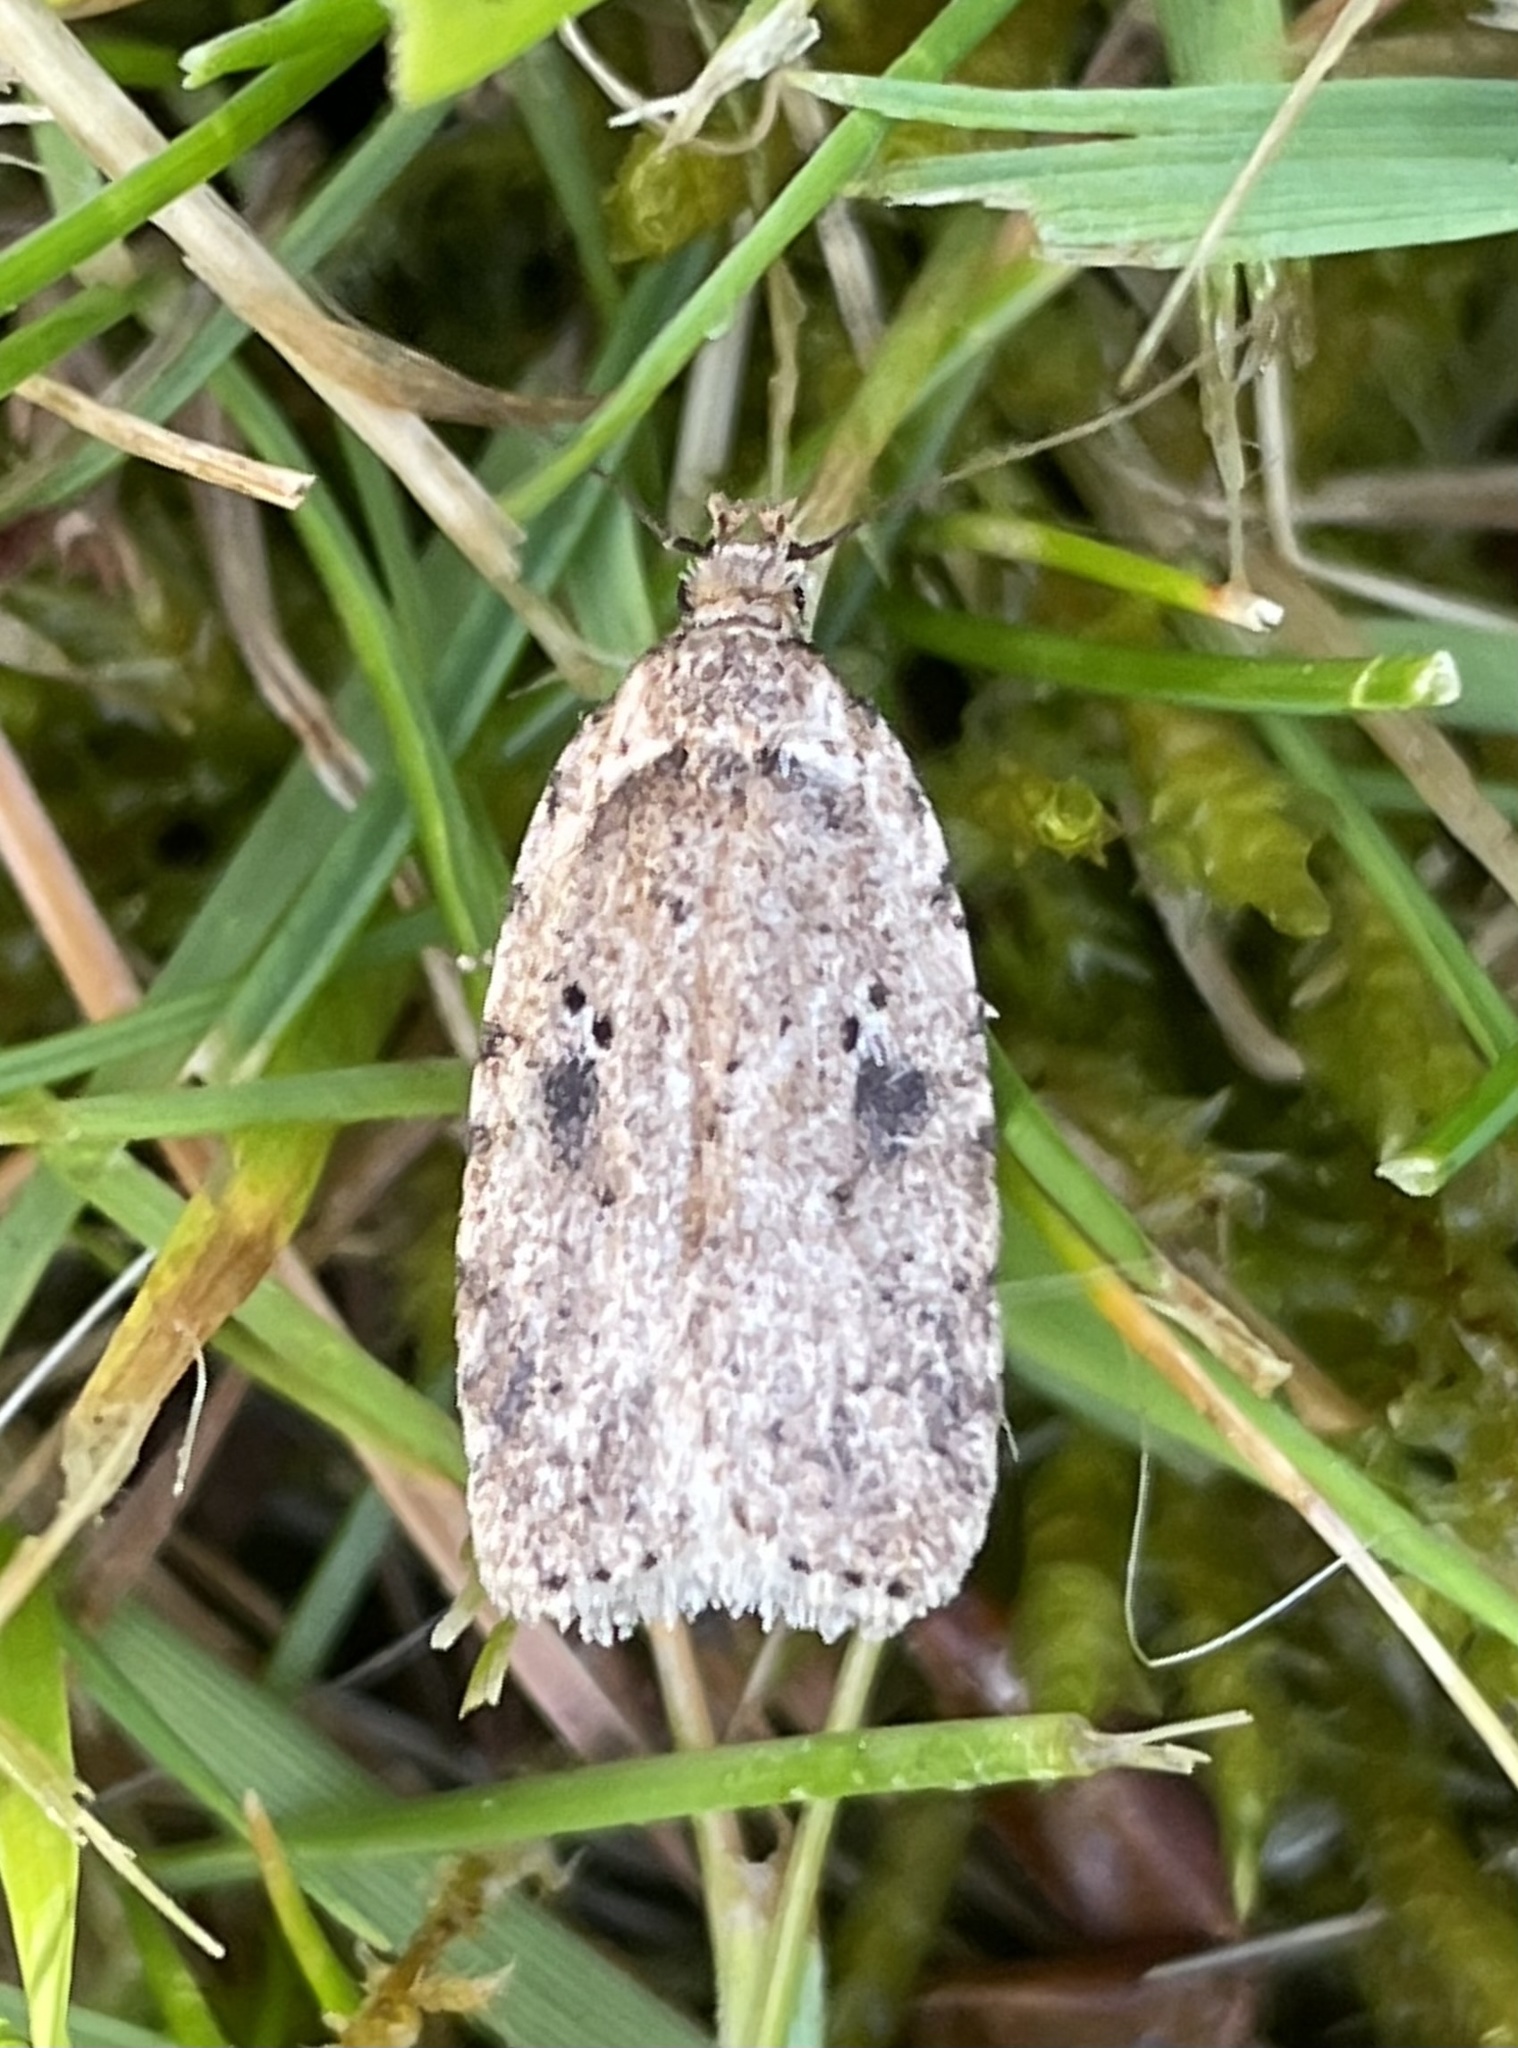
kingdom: Animalia
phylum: Arthropoda
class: Insecta
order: Lepidoptera
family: Depressariidae
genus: Agonopterix
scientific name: Agonopterix arenella
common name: Brindled flat-body
